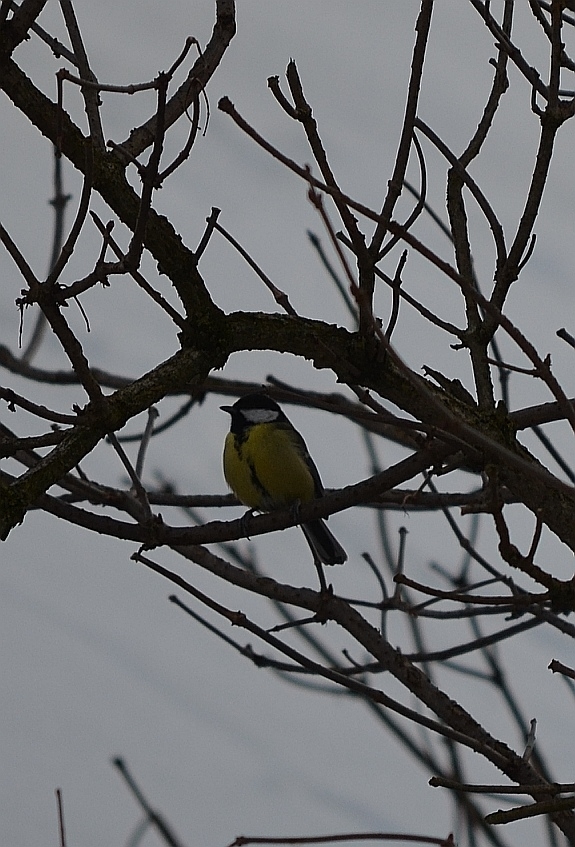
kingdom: Animalia
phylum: Chordata
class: Aves
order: Passeriformes
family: Paridae
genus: Parus
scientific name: Parus major
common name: Great tit
